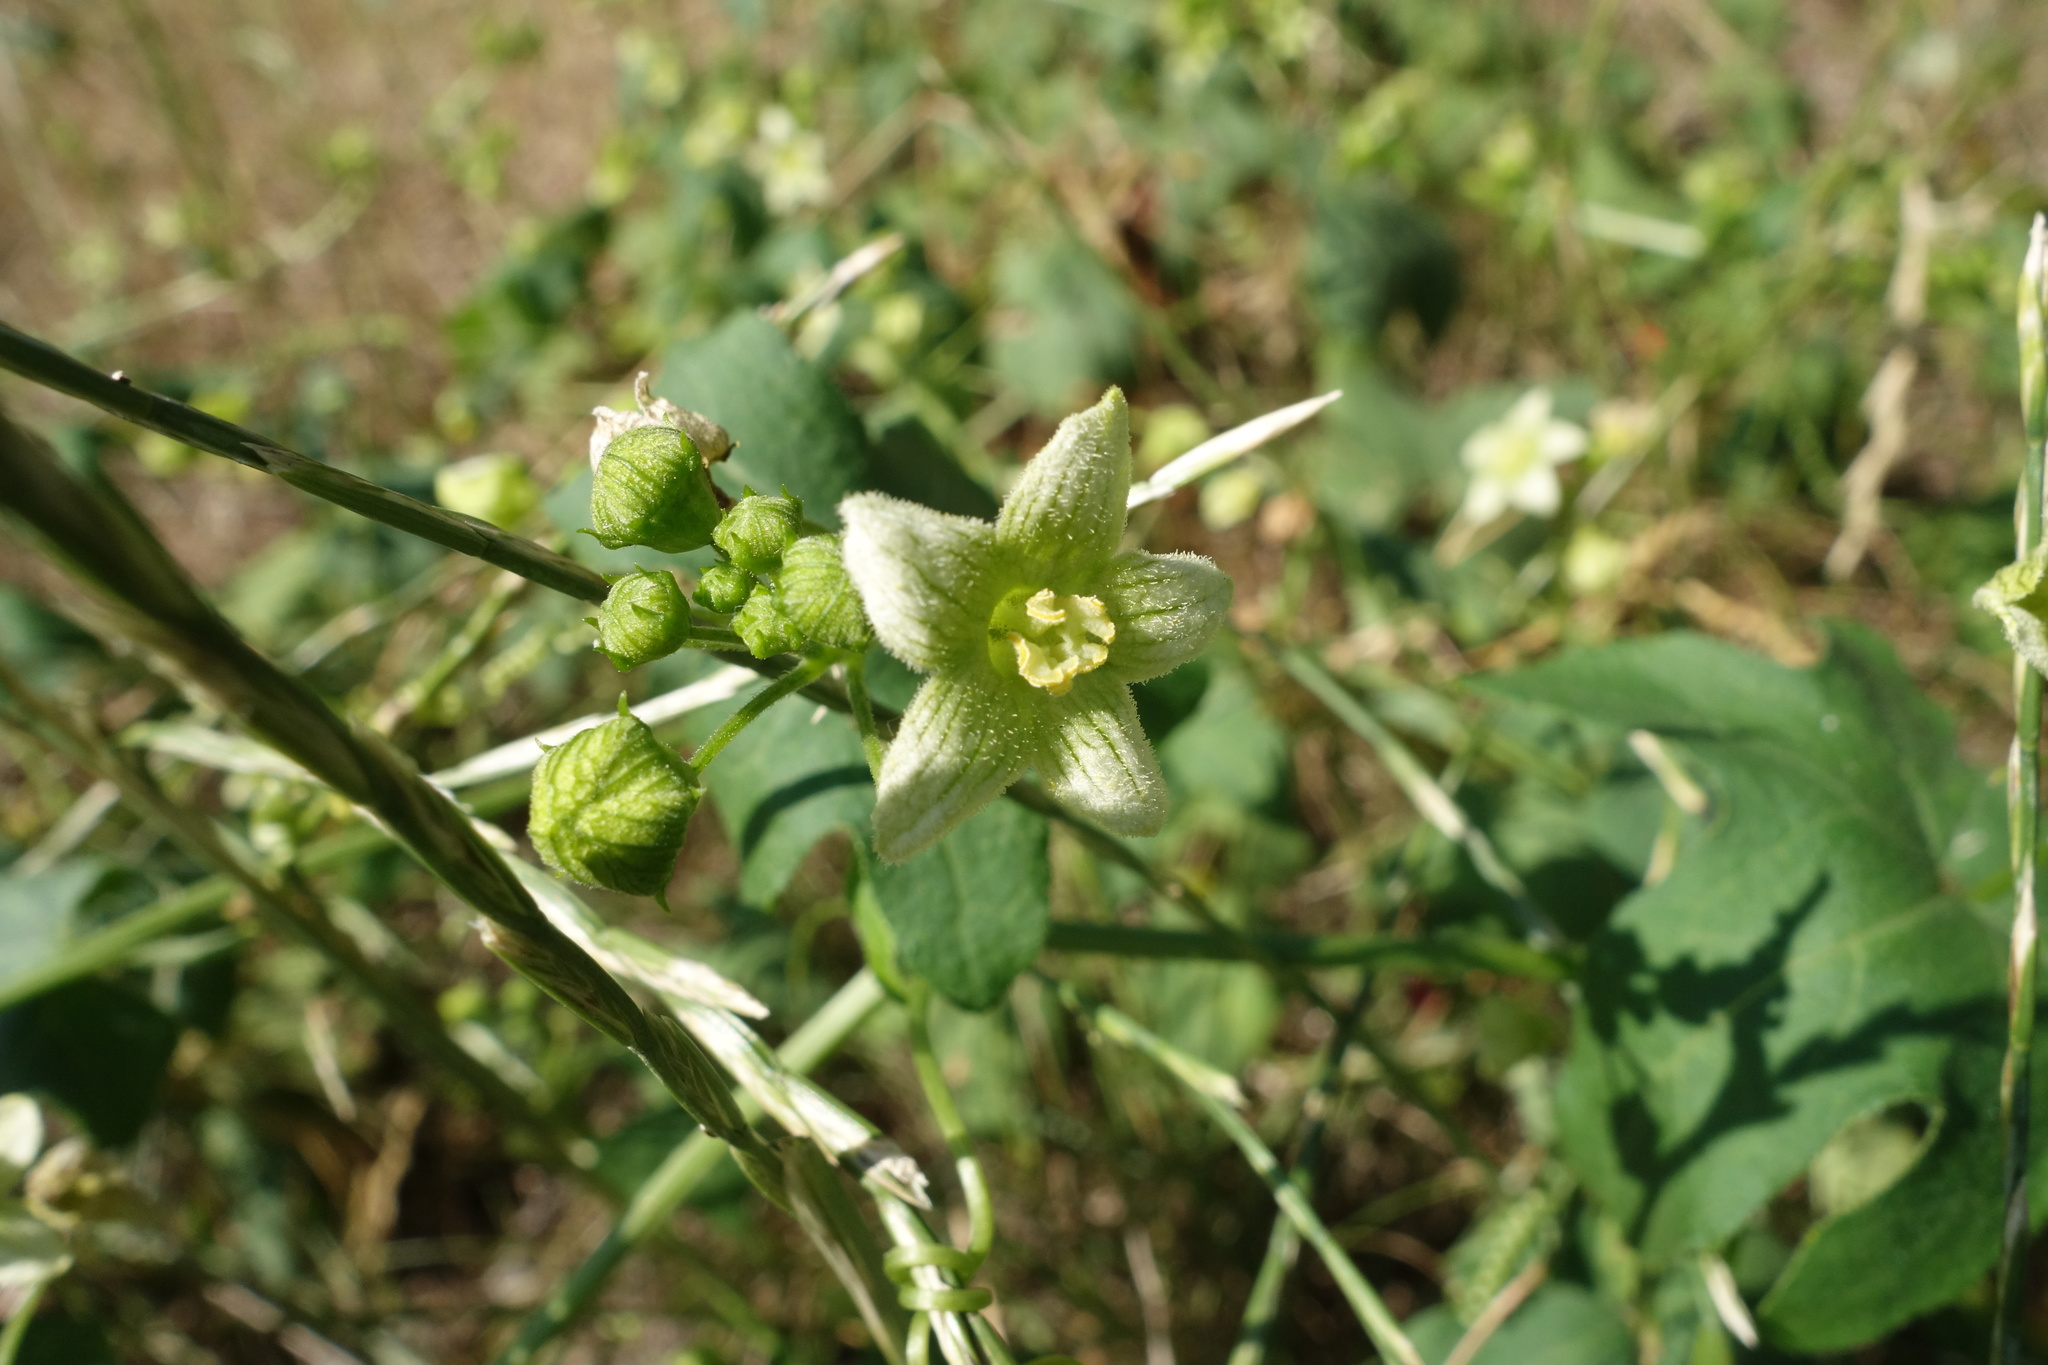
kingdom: Plantae
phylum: Tracheophyta
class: Magnoliopsida
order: Cucurbitales
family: Cucurbitaceae
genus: Bryonia
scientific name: Bryonia dioica
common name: White bryony
